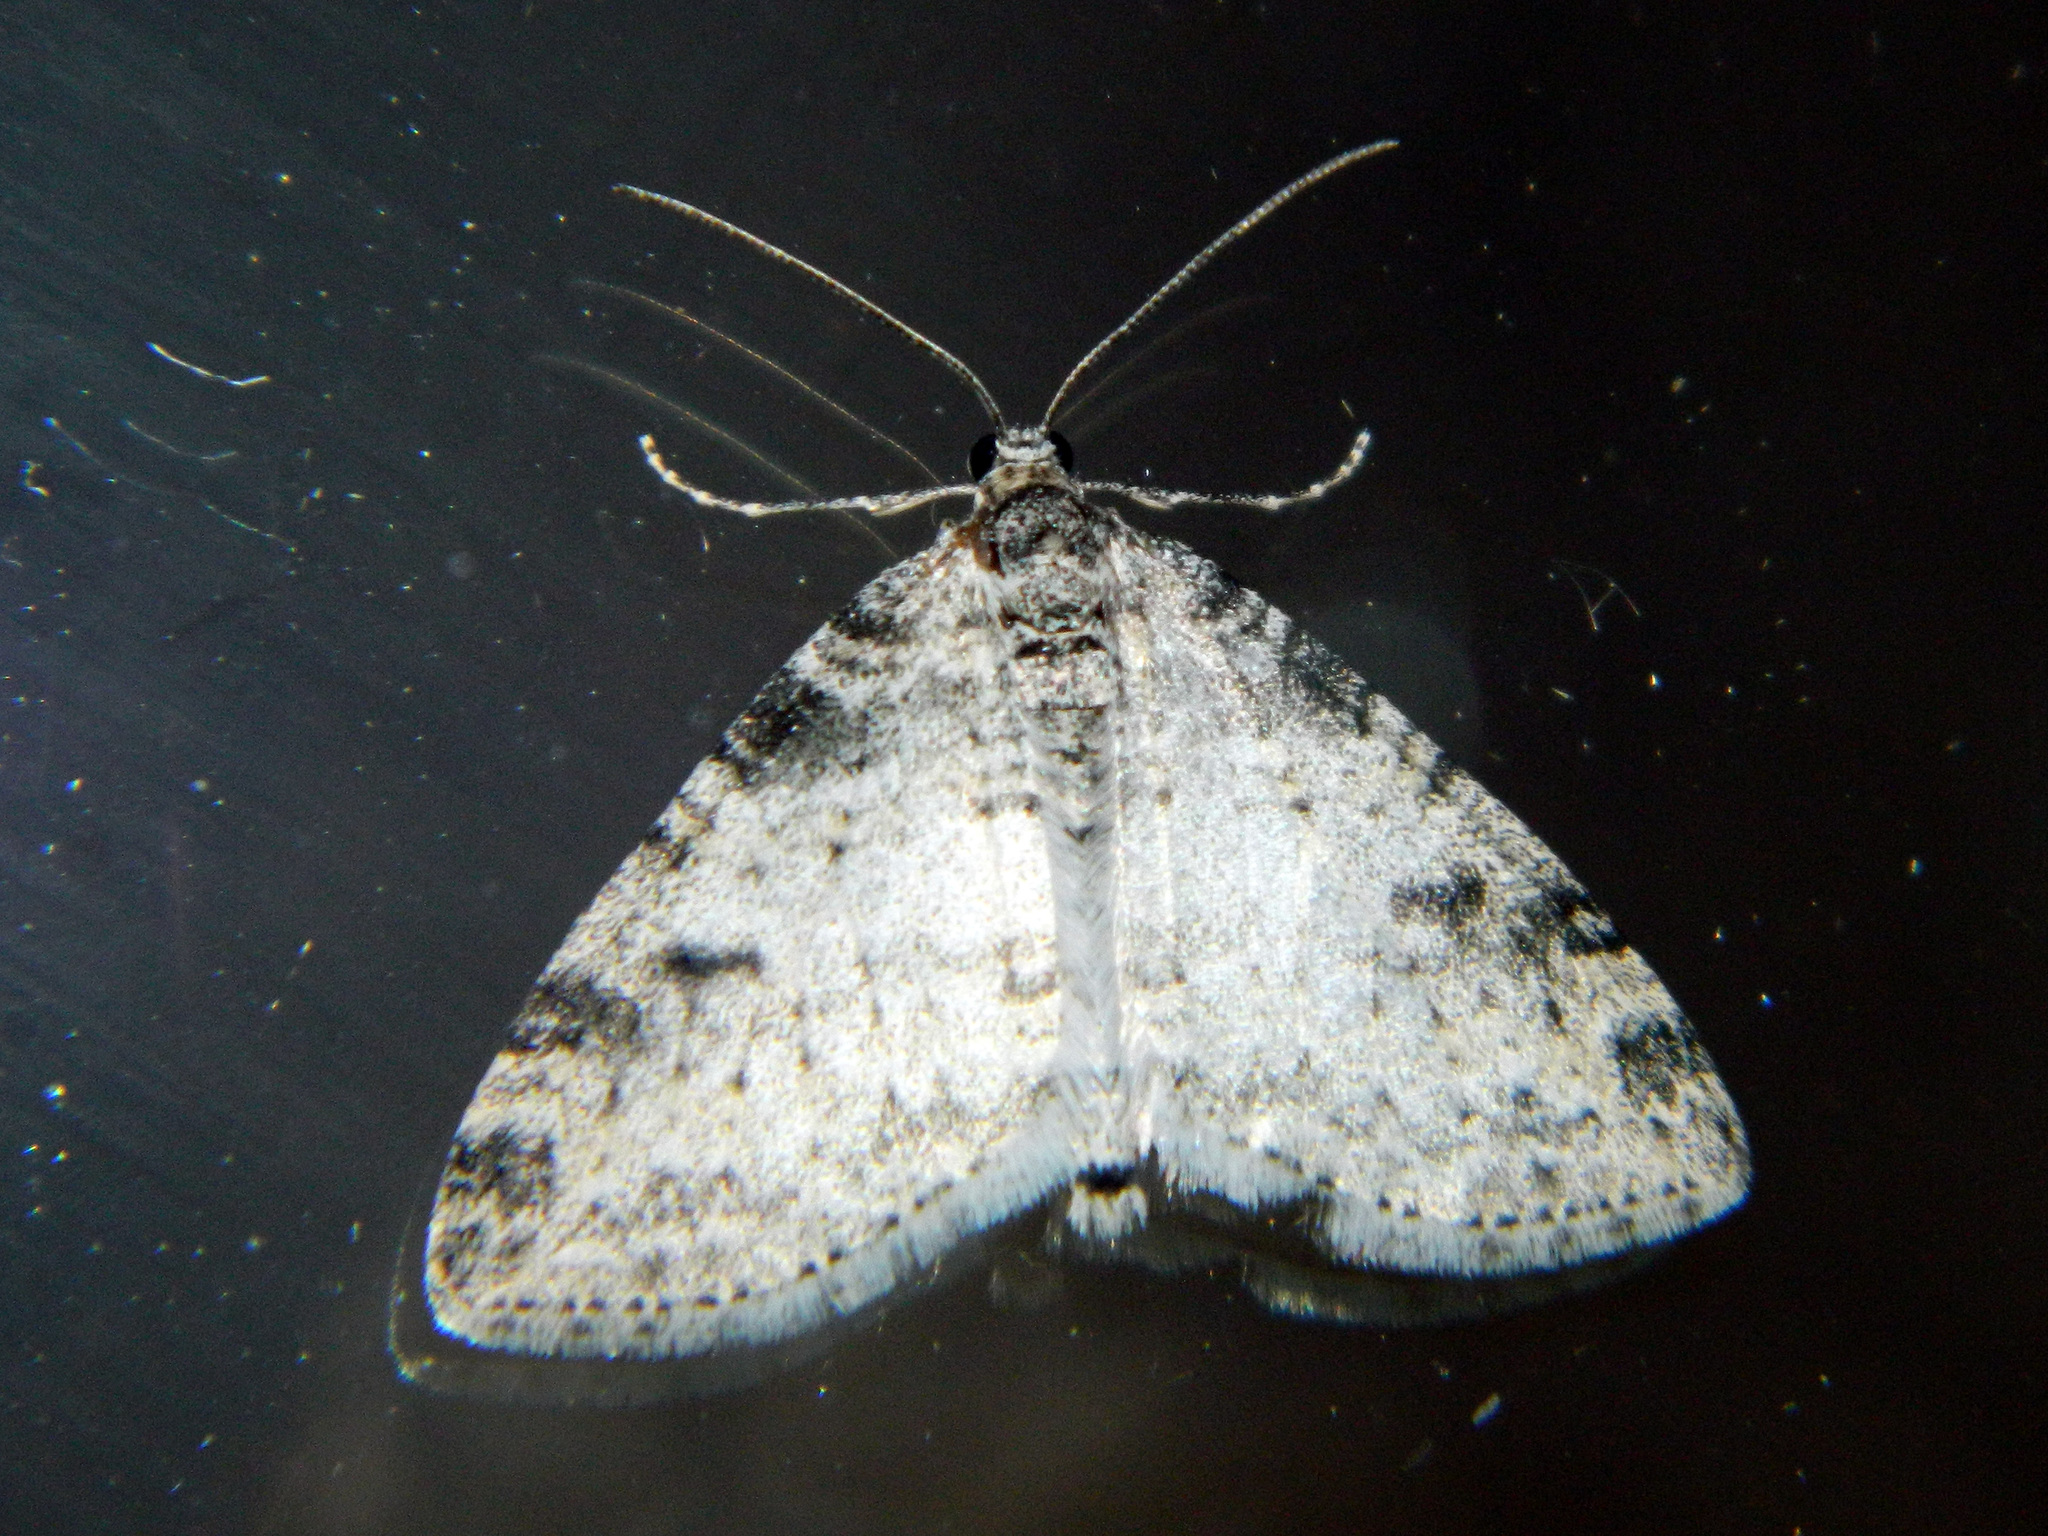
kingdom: Animalia
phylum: Arthropoda
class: Insecta
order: Lepidoptera
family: Geometridae
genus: Lobophora
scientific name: Lobophora nivigerata
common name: Powdered bigwing
